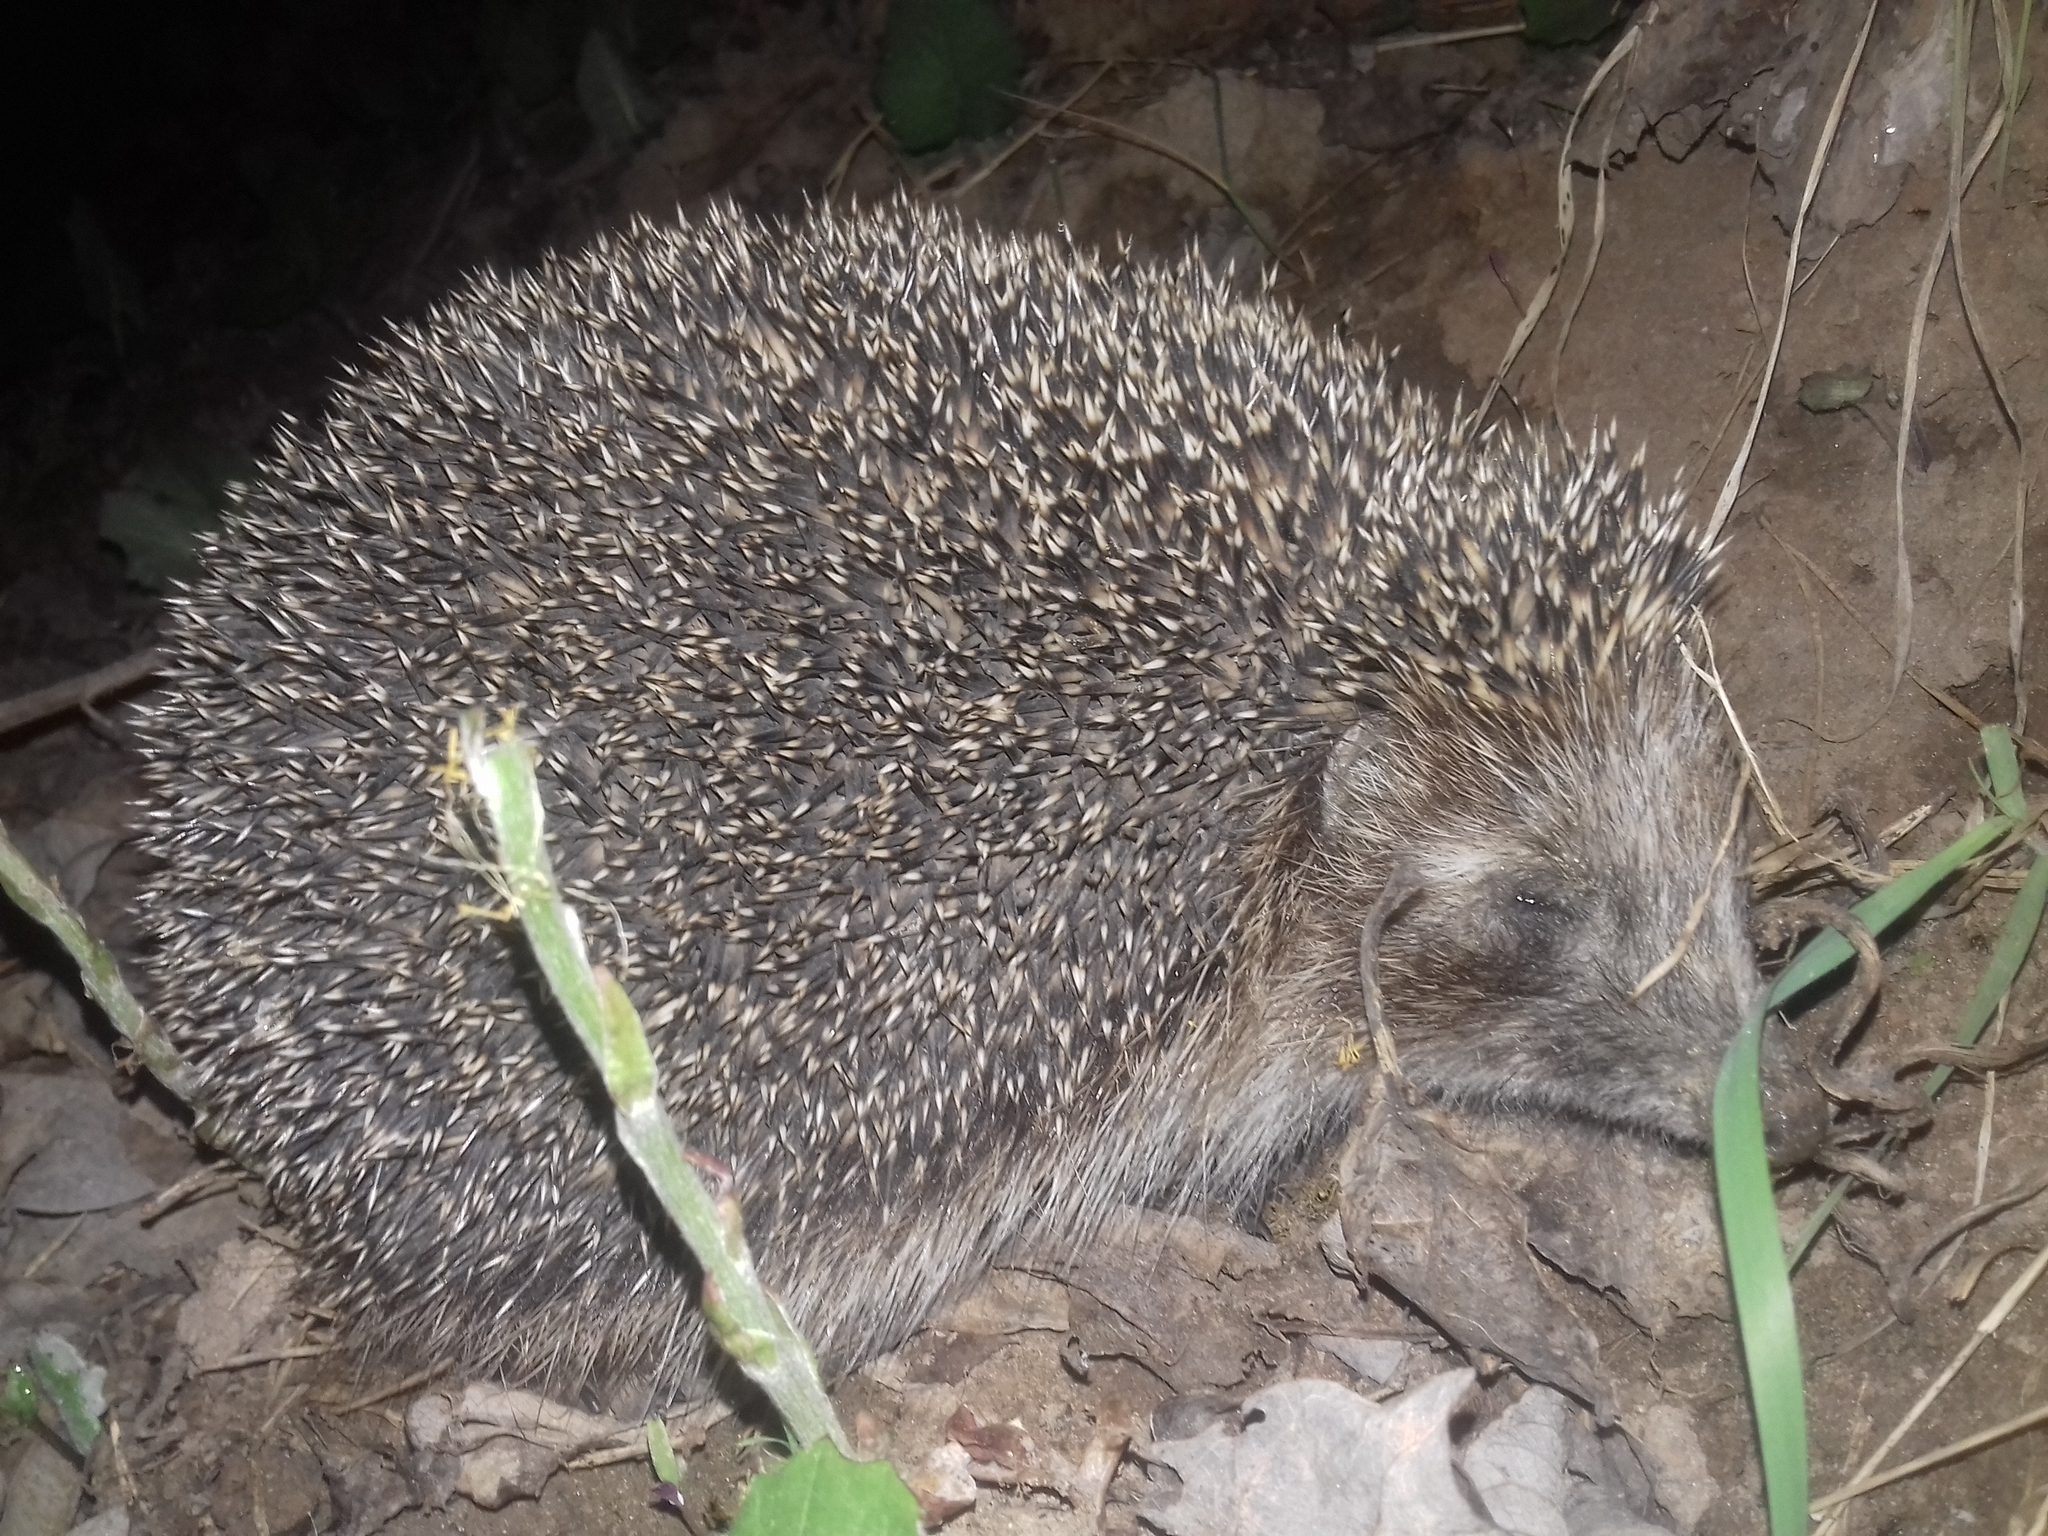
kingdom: Animalia
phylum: Chordata
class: Mammalia
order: Erinaceomorpha
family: Erinaceidae
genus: Erinaceus
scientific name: Erinaceus roumanicus
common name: Northern white-breasted hedgehog
